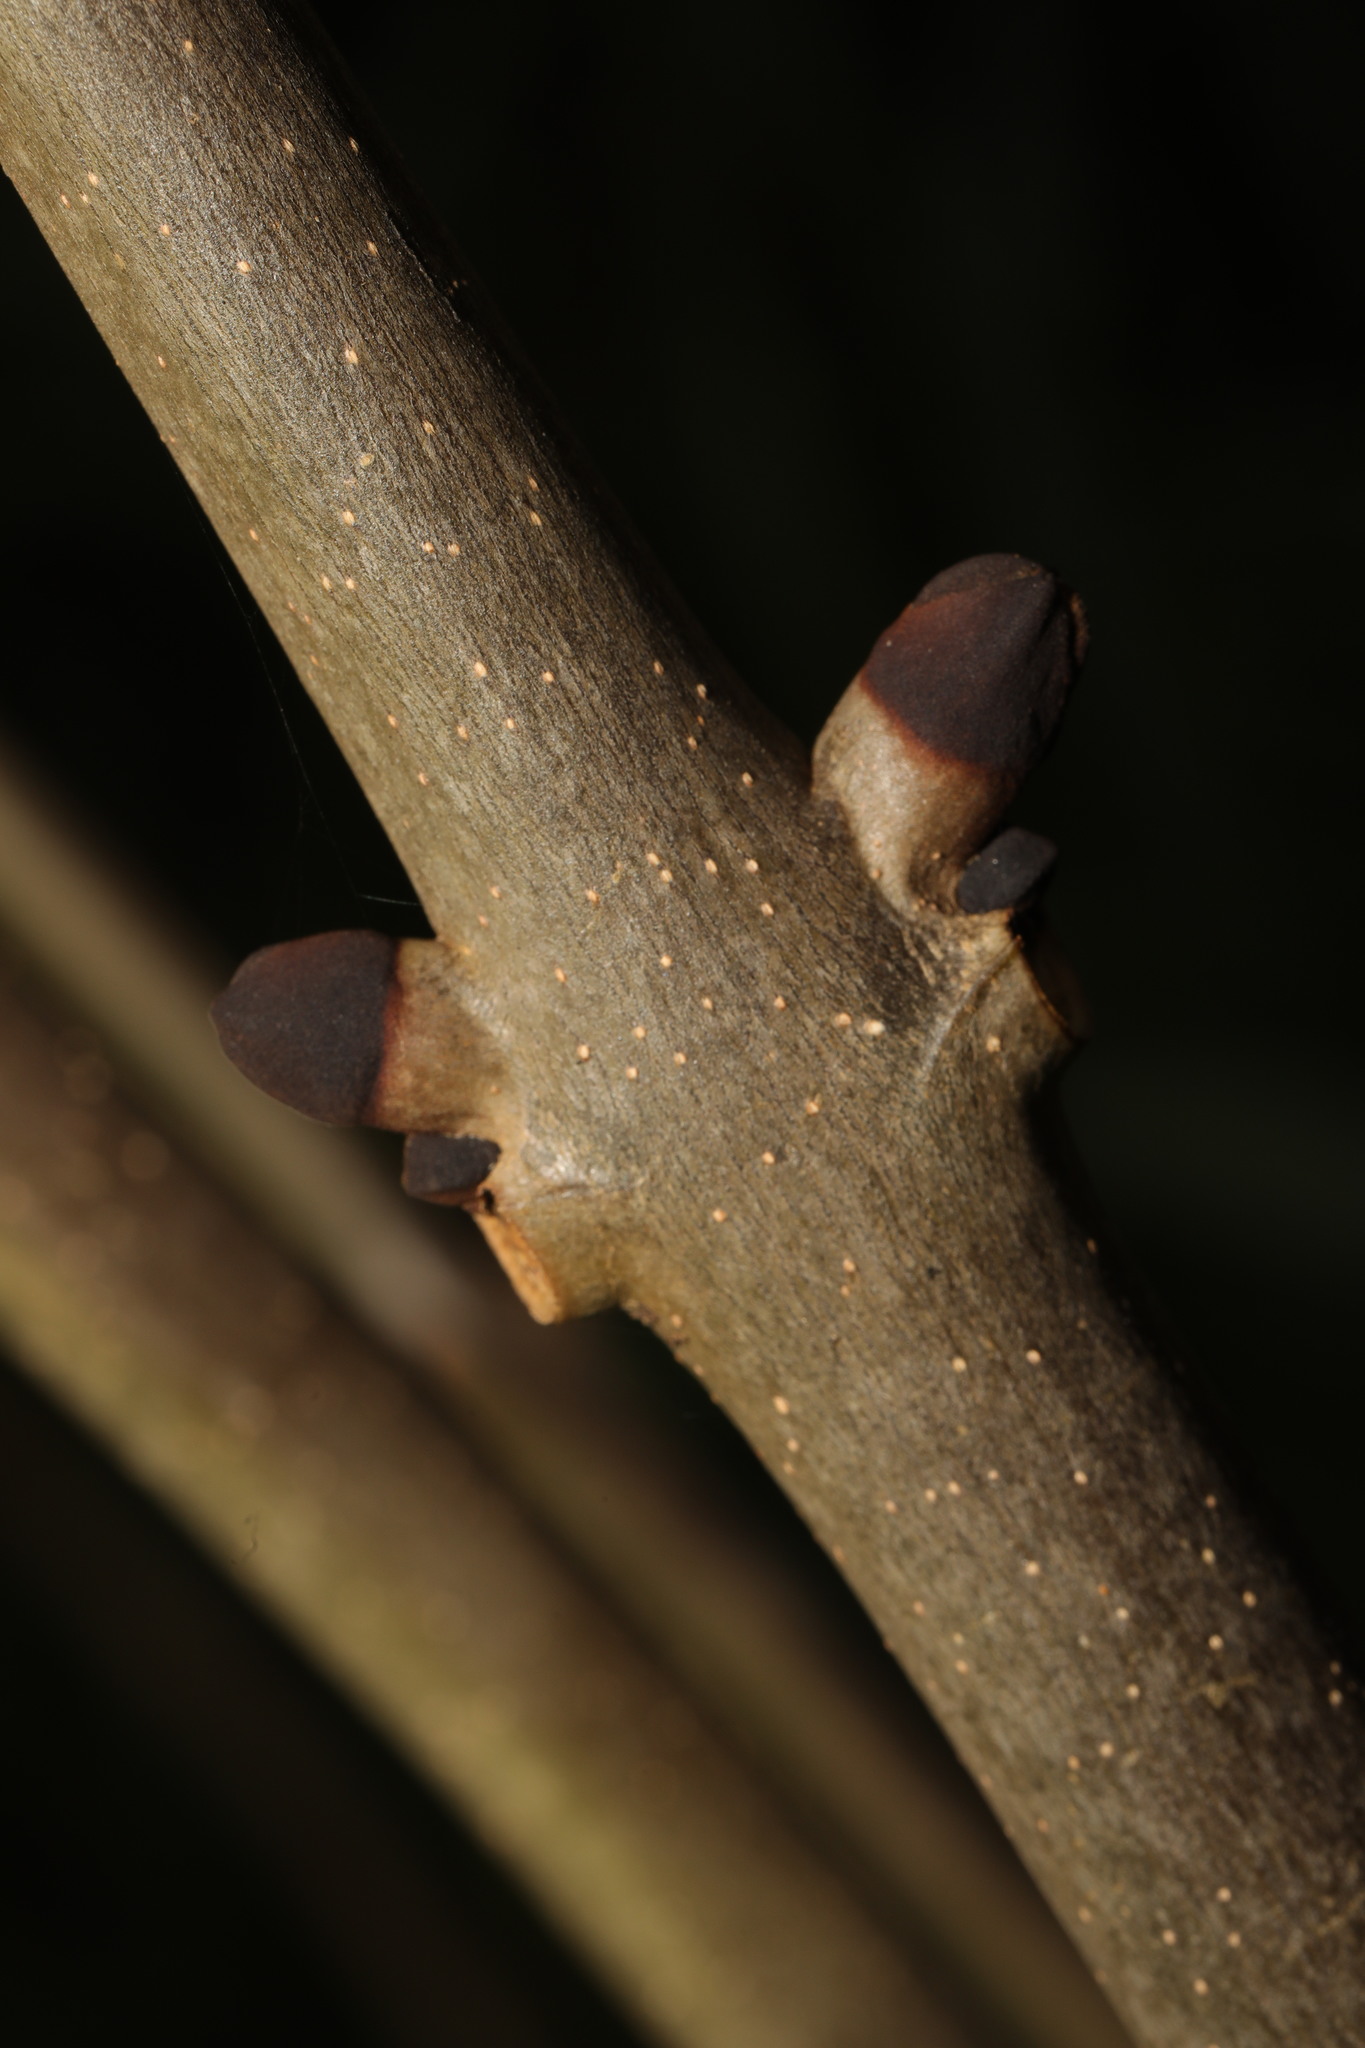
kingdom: Plantae
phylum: Tracheophyta
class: Magnoliopsida
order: Lamiales
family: Oleaceae
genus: Fraxinus
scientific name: Fraxinus excelsior
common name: European ash
